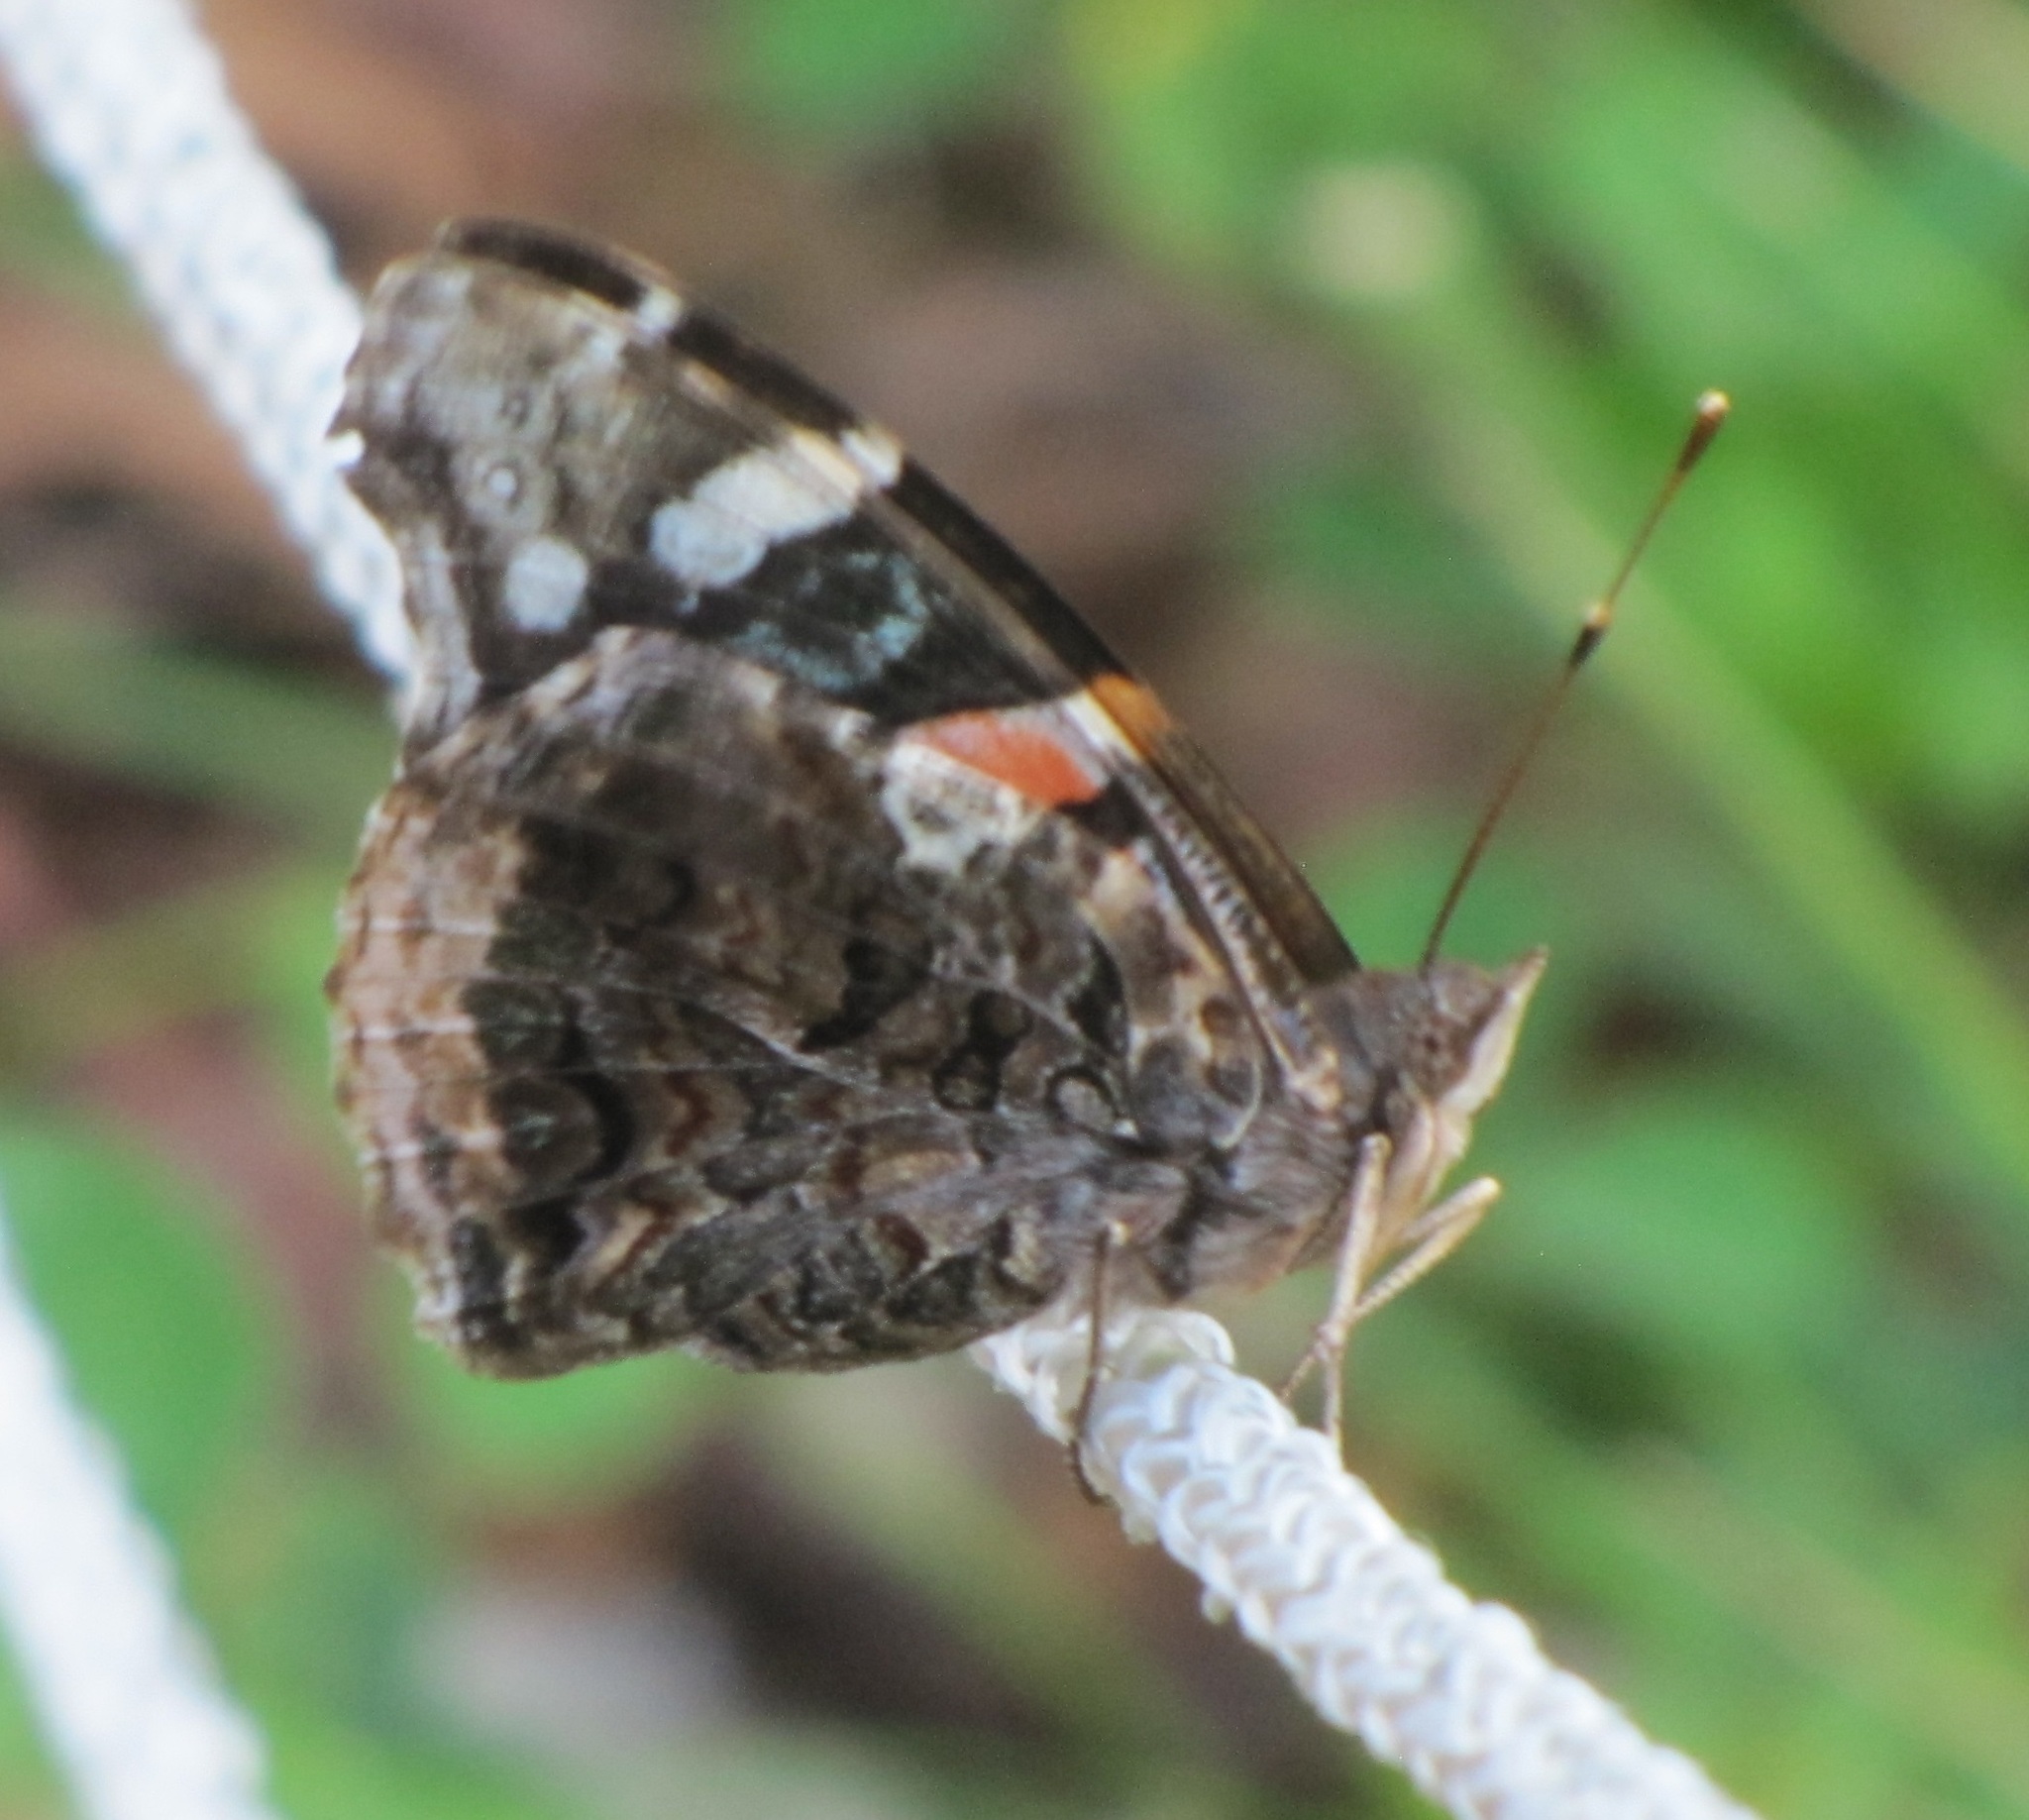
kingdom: Animalia
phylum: Arthropoda
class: Insecta
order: Lepidoptera
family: Nymphalidae
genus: Vanessa
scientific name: Vanessa atalanta
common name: Red admiral
